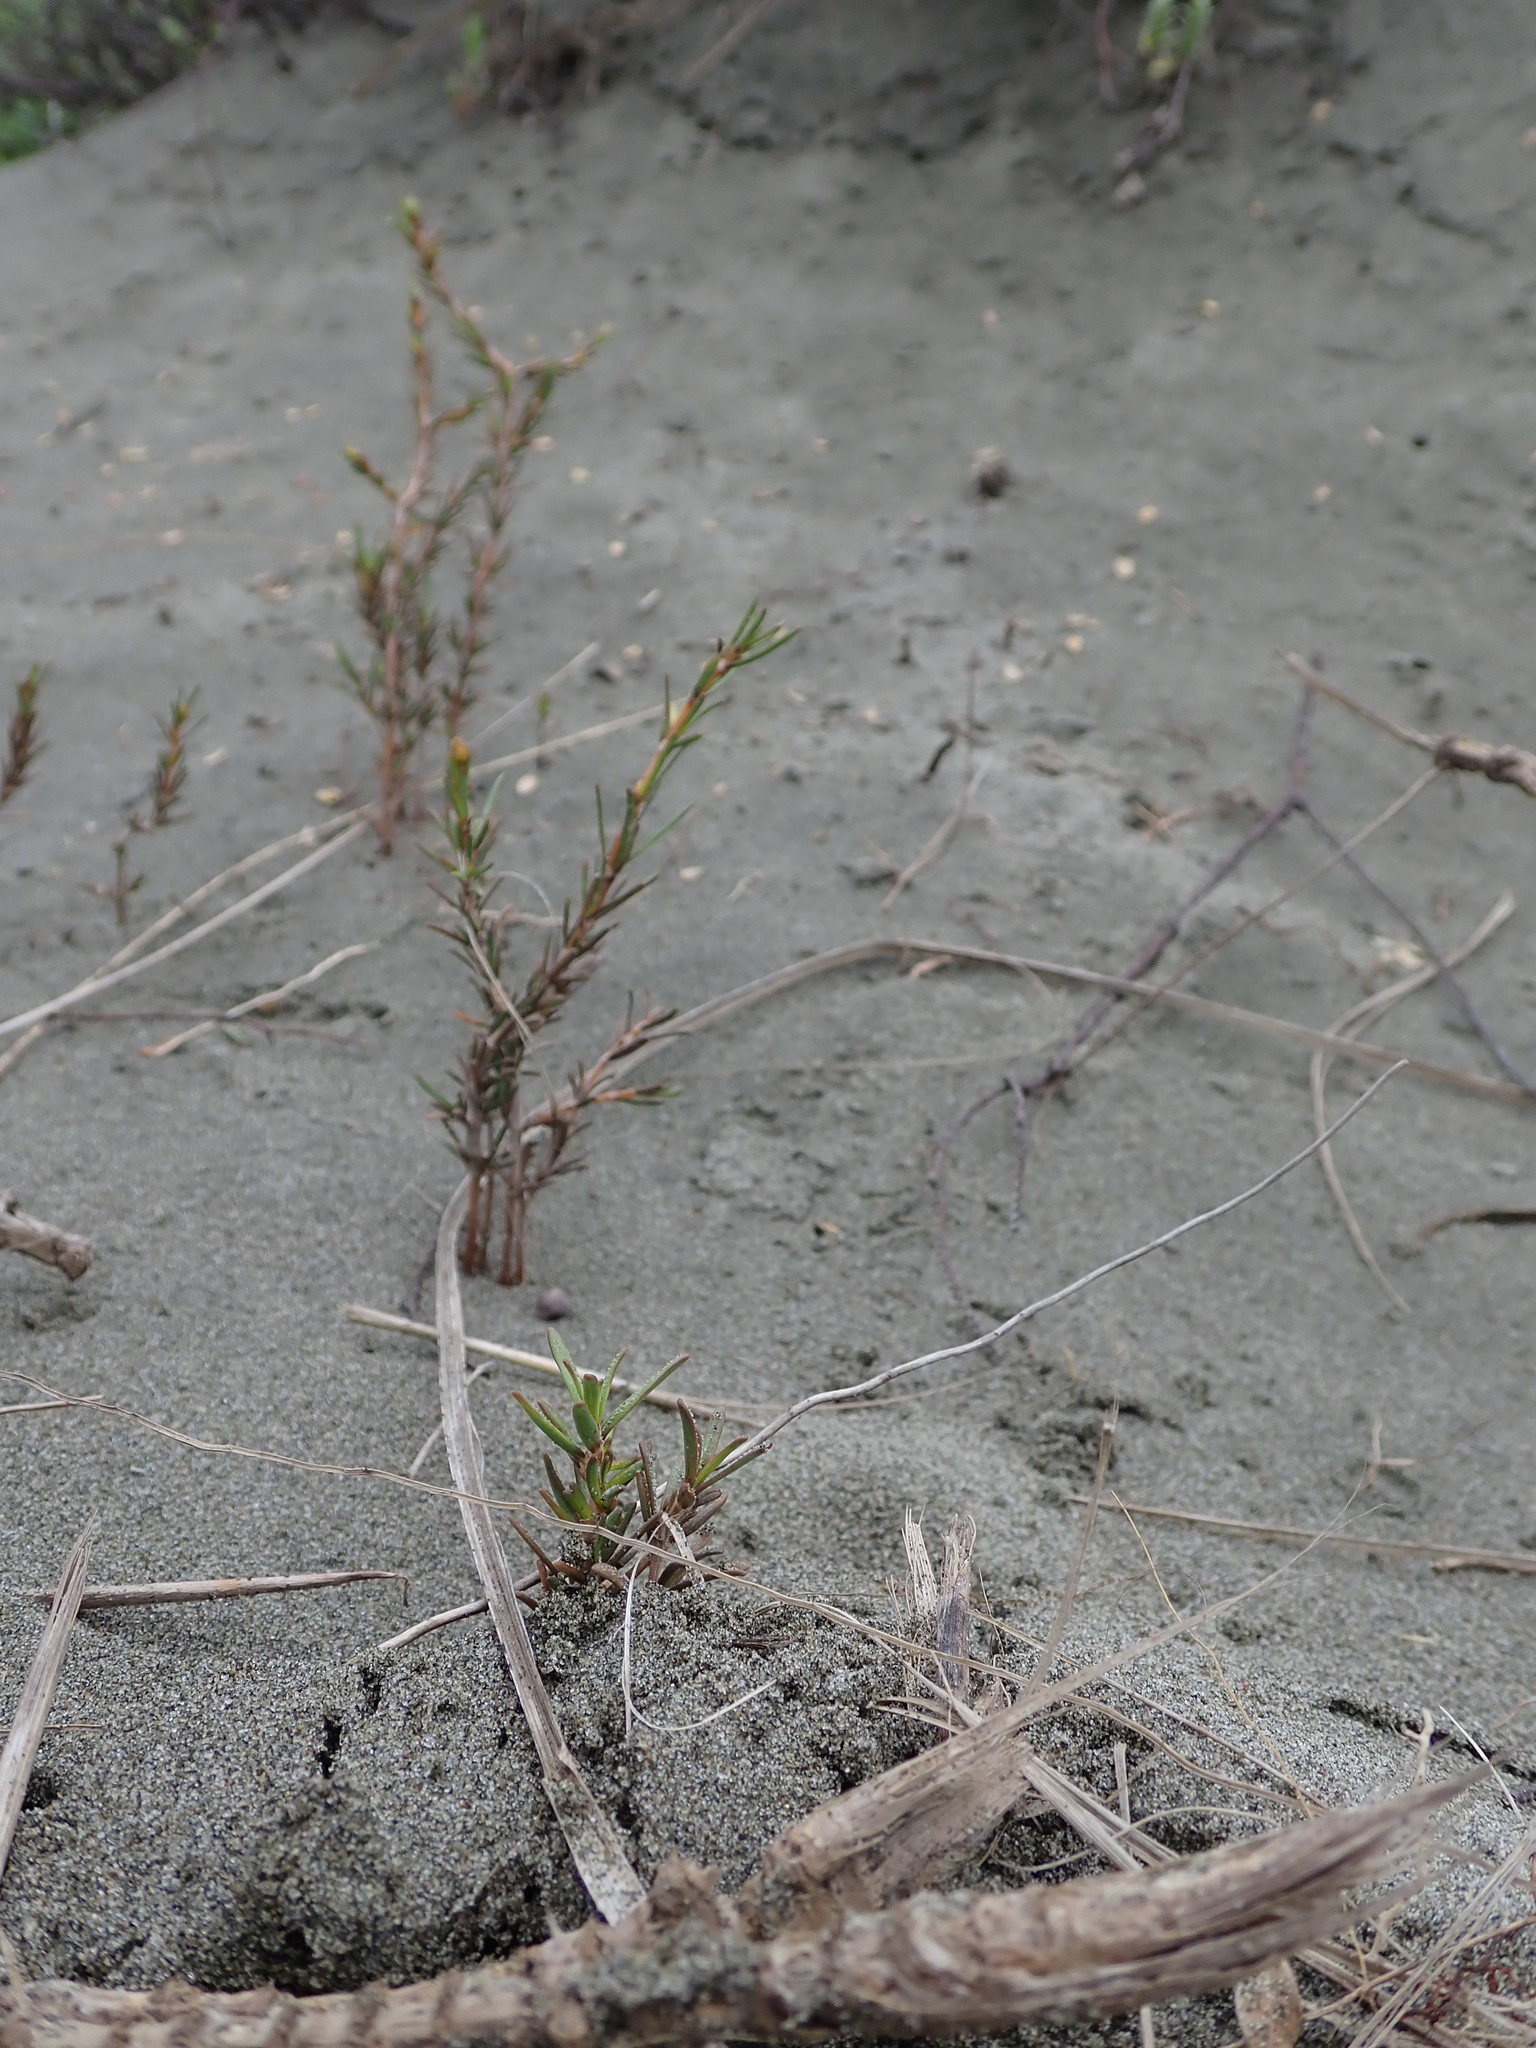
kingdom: Plantae
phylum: Tracheophyta
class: Magnoliopsida
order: Gentianales
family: Rubiaceae
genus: Coprosma
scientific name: Coprosma acerosa
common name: Sand coprosma
